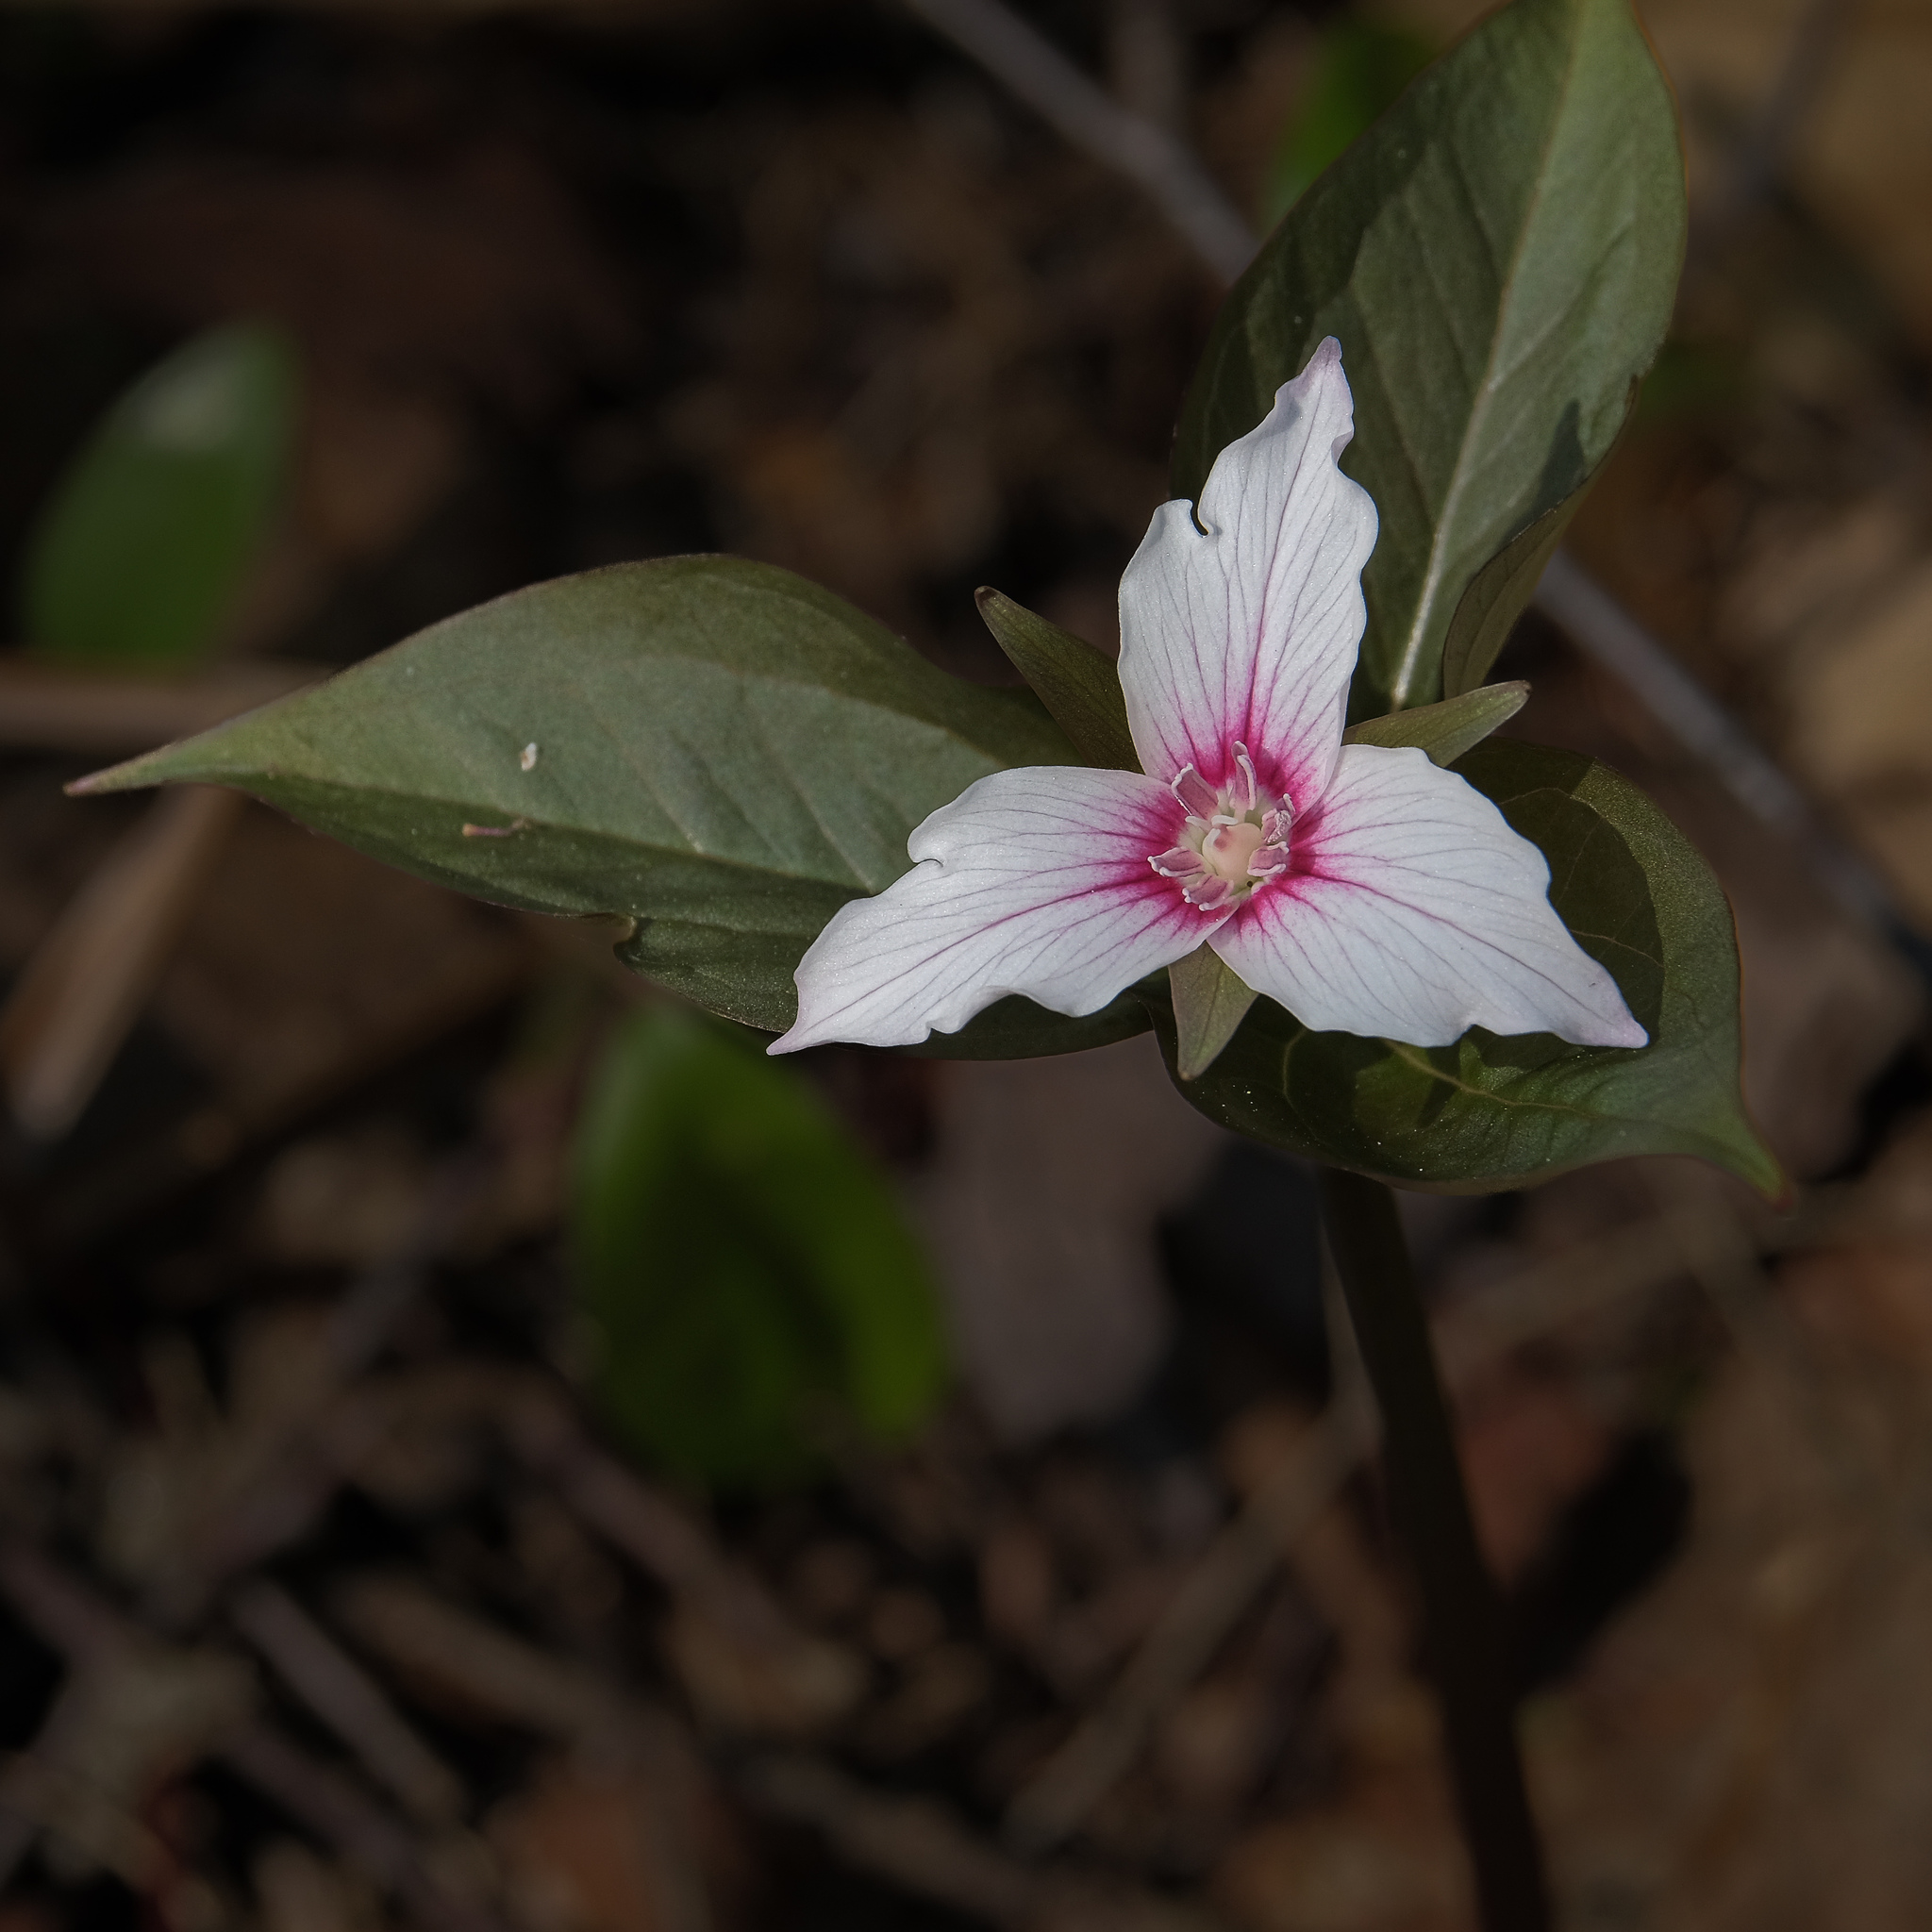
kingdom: Plantae
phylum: Tracheophyta
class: Liliopsida
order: Liliales
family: Melanthiaceae
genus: Trillium
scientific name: Trillium undulatum
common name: Paint trillium
